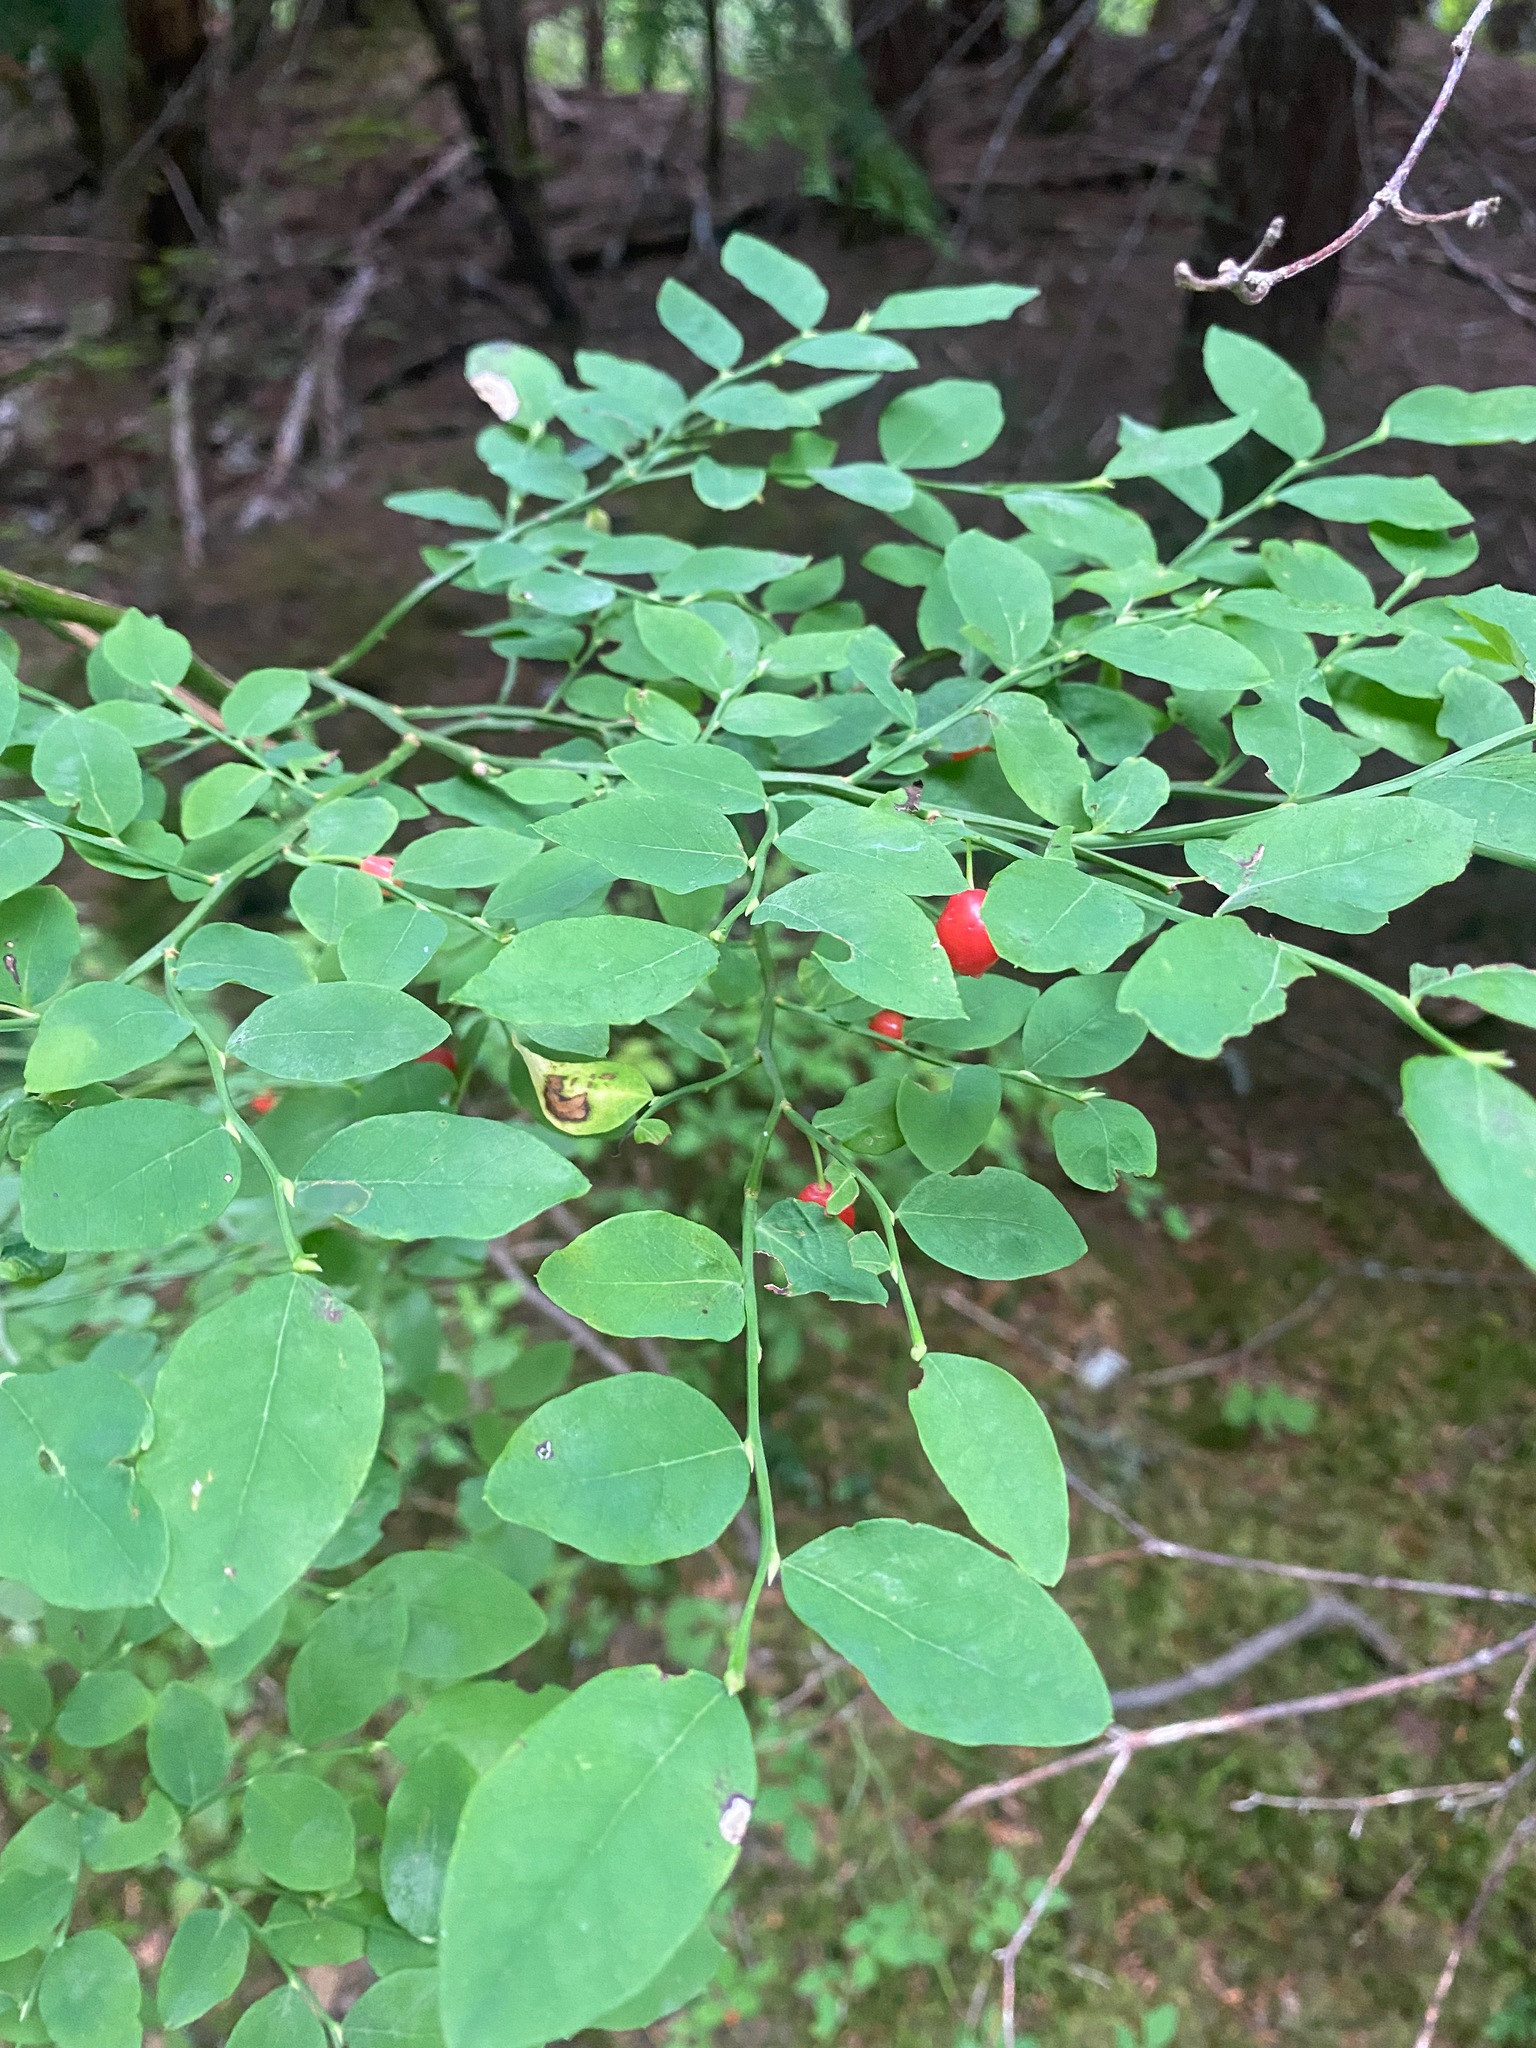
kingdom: Plantae
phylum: Tracheophyta
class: Magnoliopsida
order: Ericales
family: Ericaceae
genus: Vaccinium
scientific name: Vaccinium parvifolium
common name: Red-huckleberry
